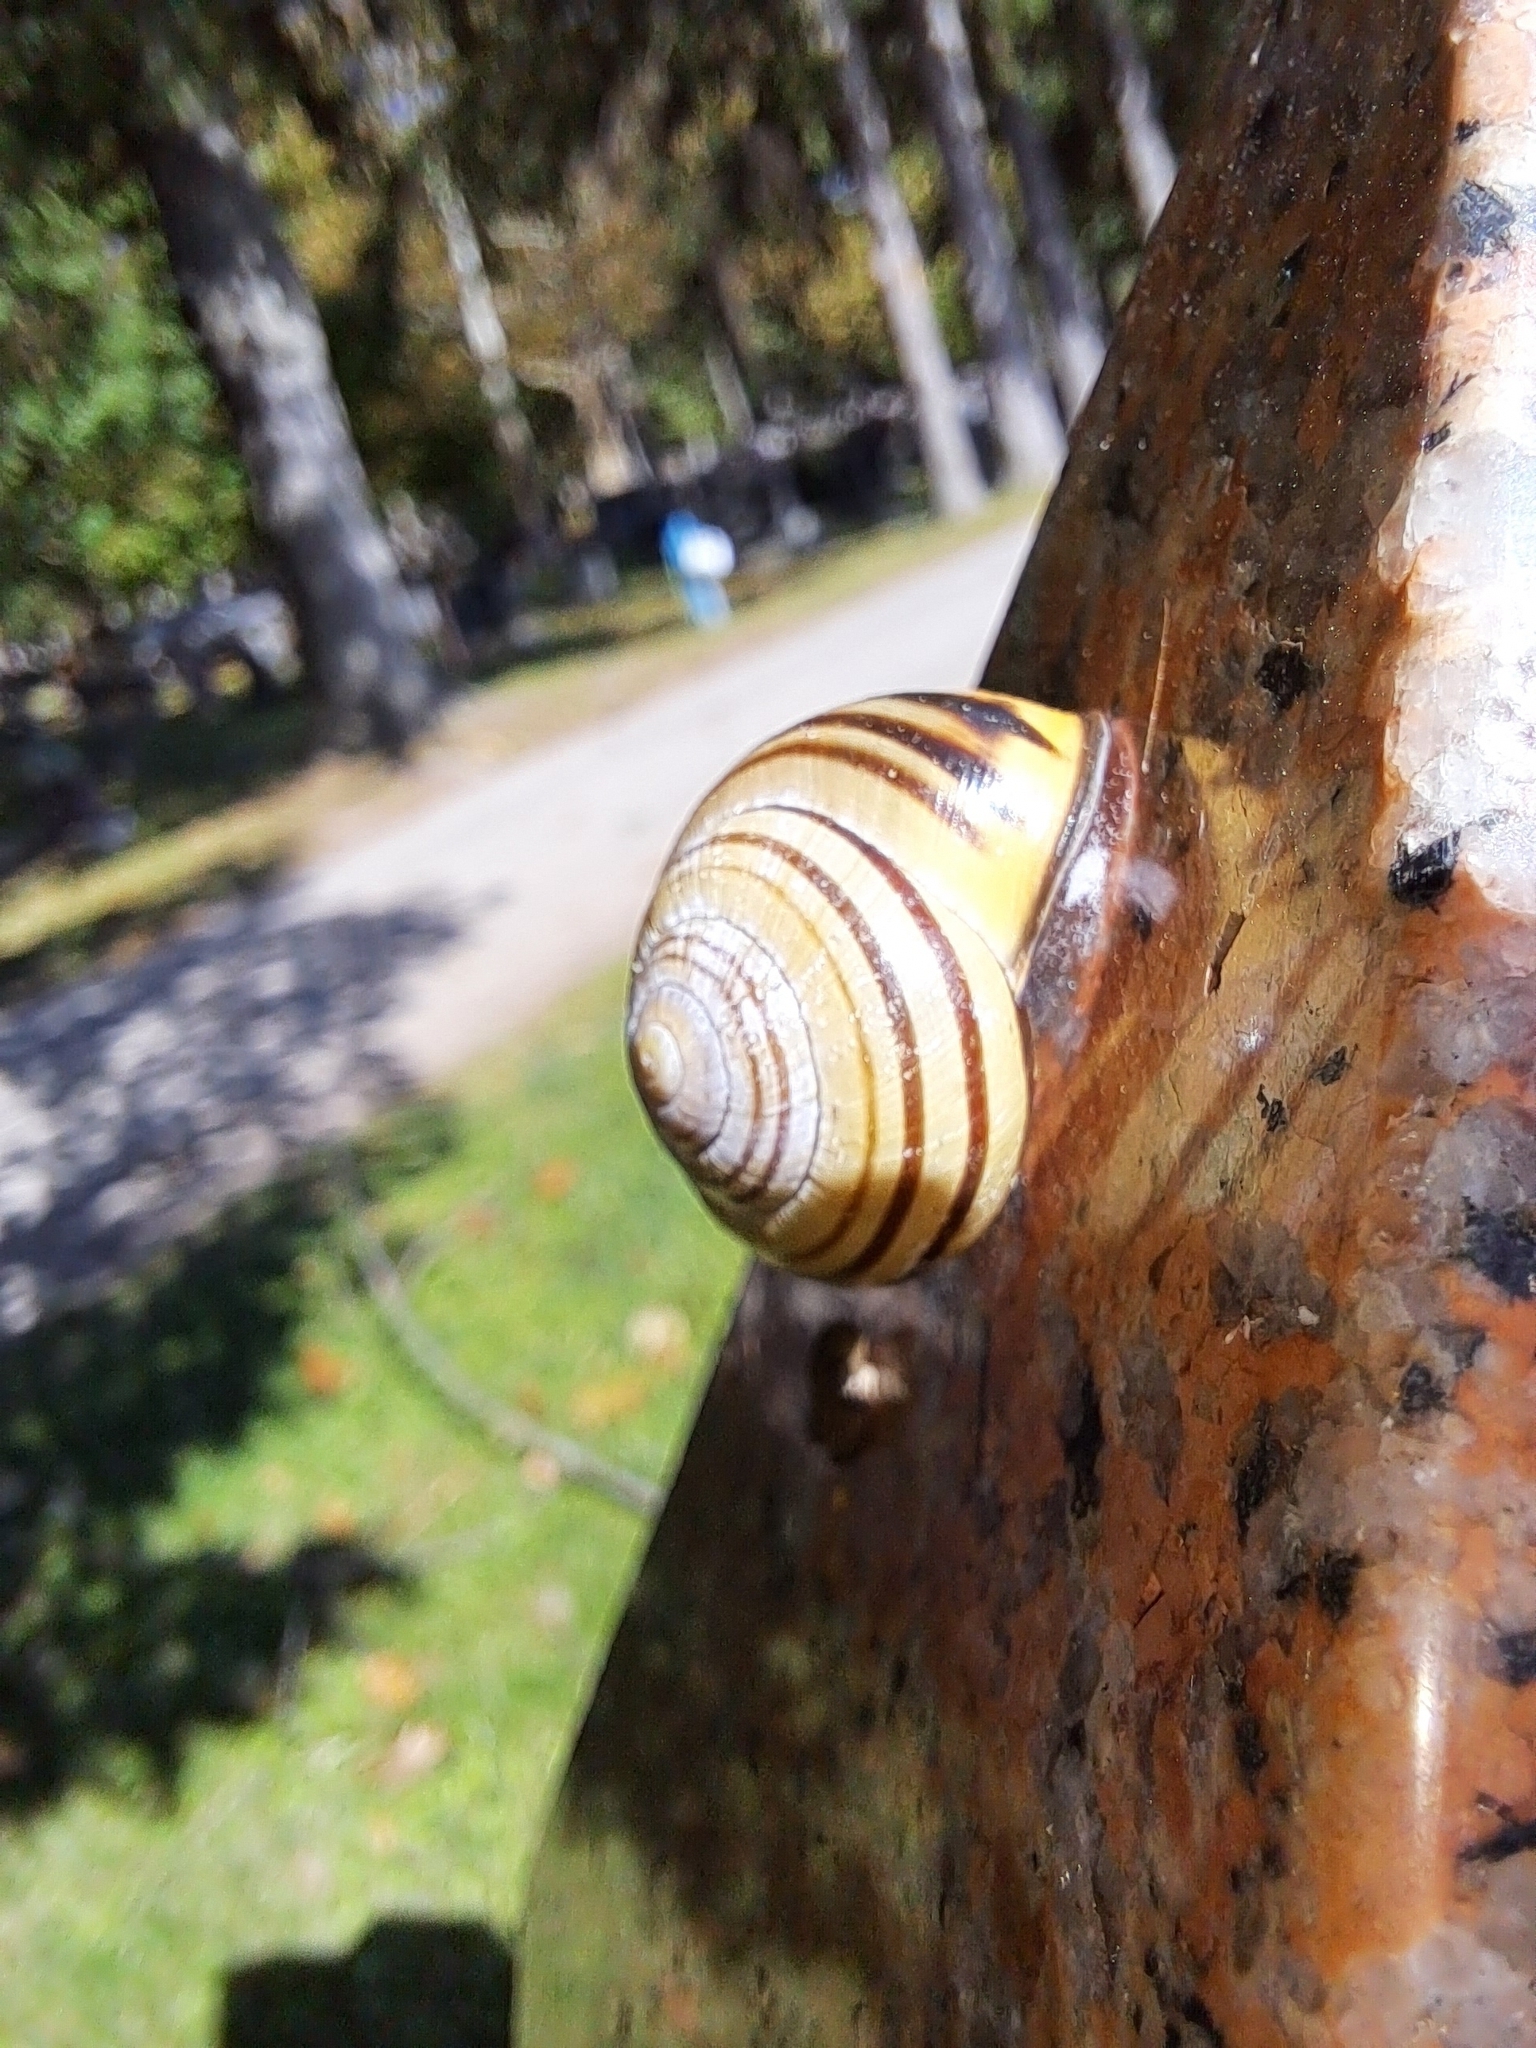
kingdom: Animalia
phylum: Mollusca
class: Gastropoda
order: Stylommatophora
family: Helicidae
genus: Cepaea
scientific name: Cepaea nemoralis
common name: Grovesnail
